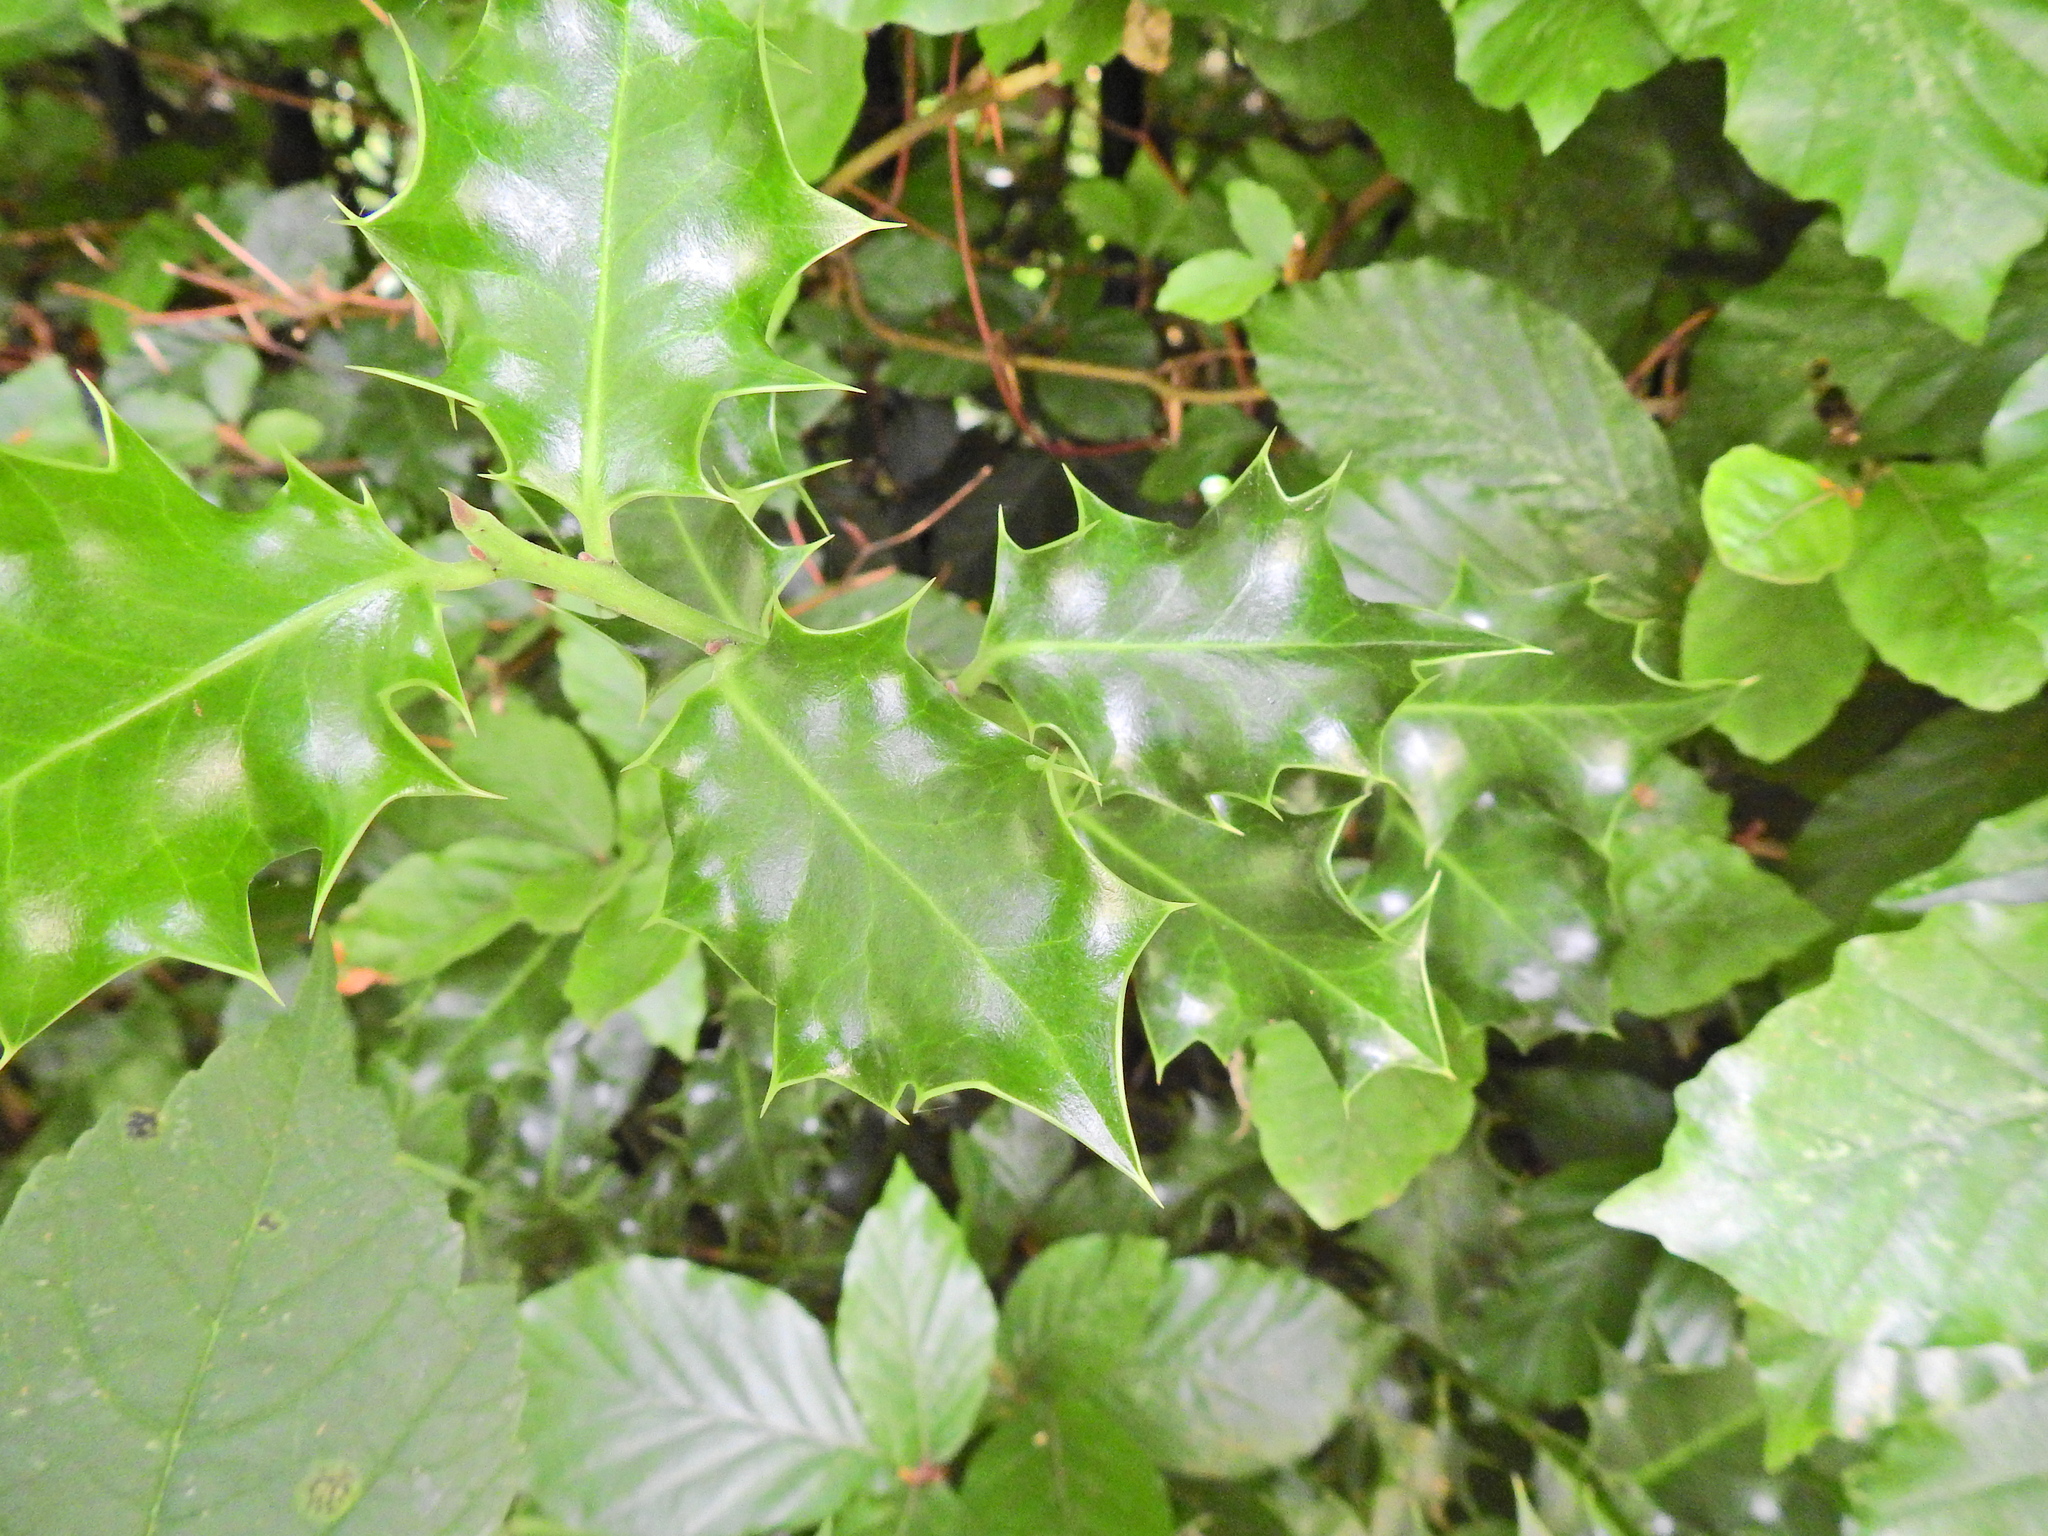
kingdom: Plantae
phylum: Tracheophyta
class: Magnoliopsida
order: Aquifoliales
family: Aquifoliaceae
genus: Ilex
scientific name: Ilex aquifolium
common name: English holly
